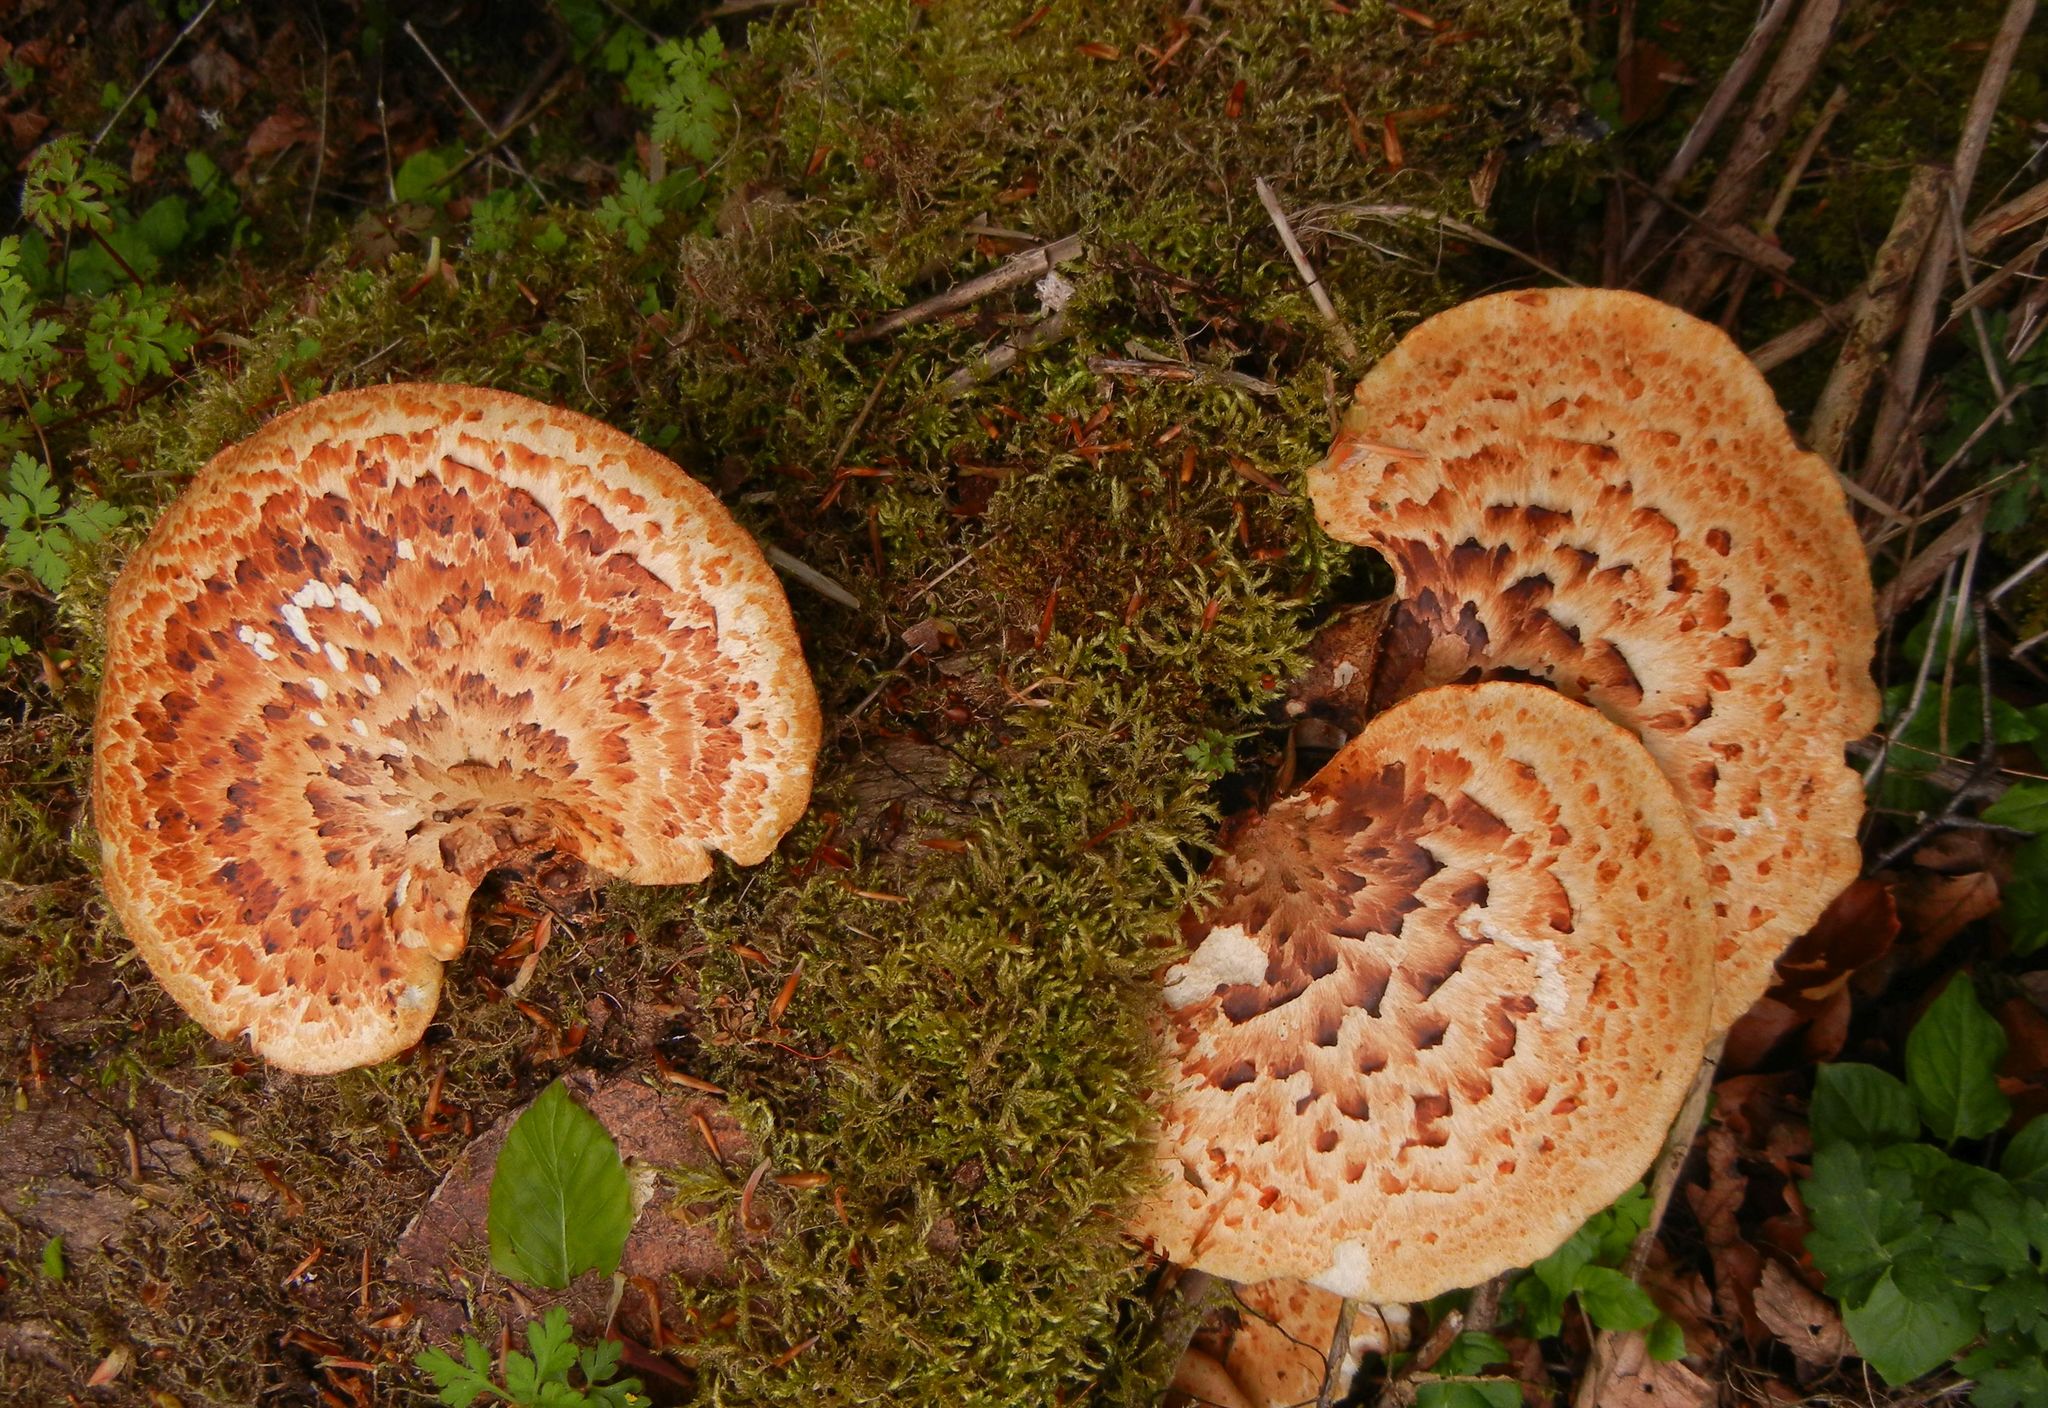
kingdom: Fungi
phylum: Basidiomycota
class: Agaricomycetes
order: Polyporales
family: Polyporaceae
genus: Cerioporus
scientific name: Cerioporus squamosus
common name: Dryad's saddle
